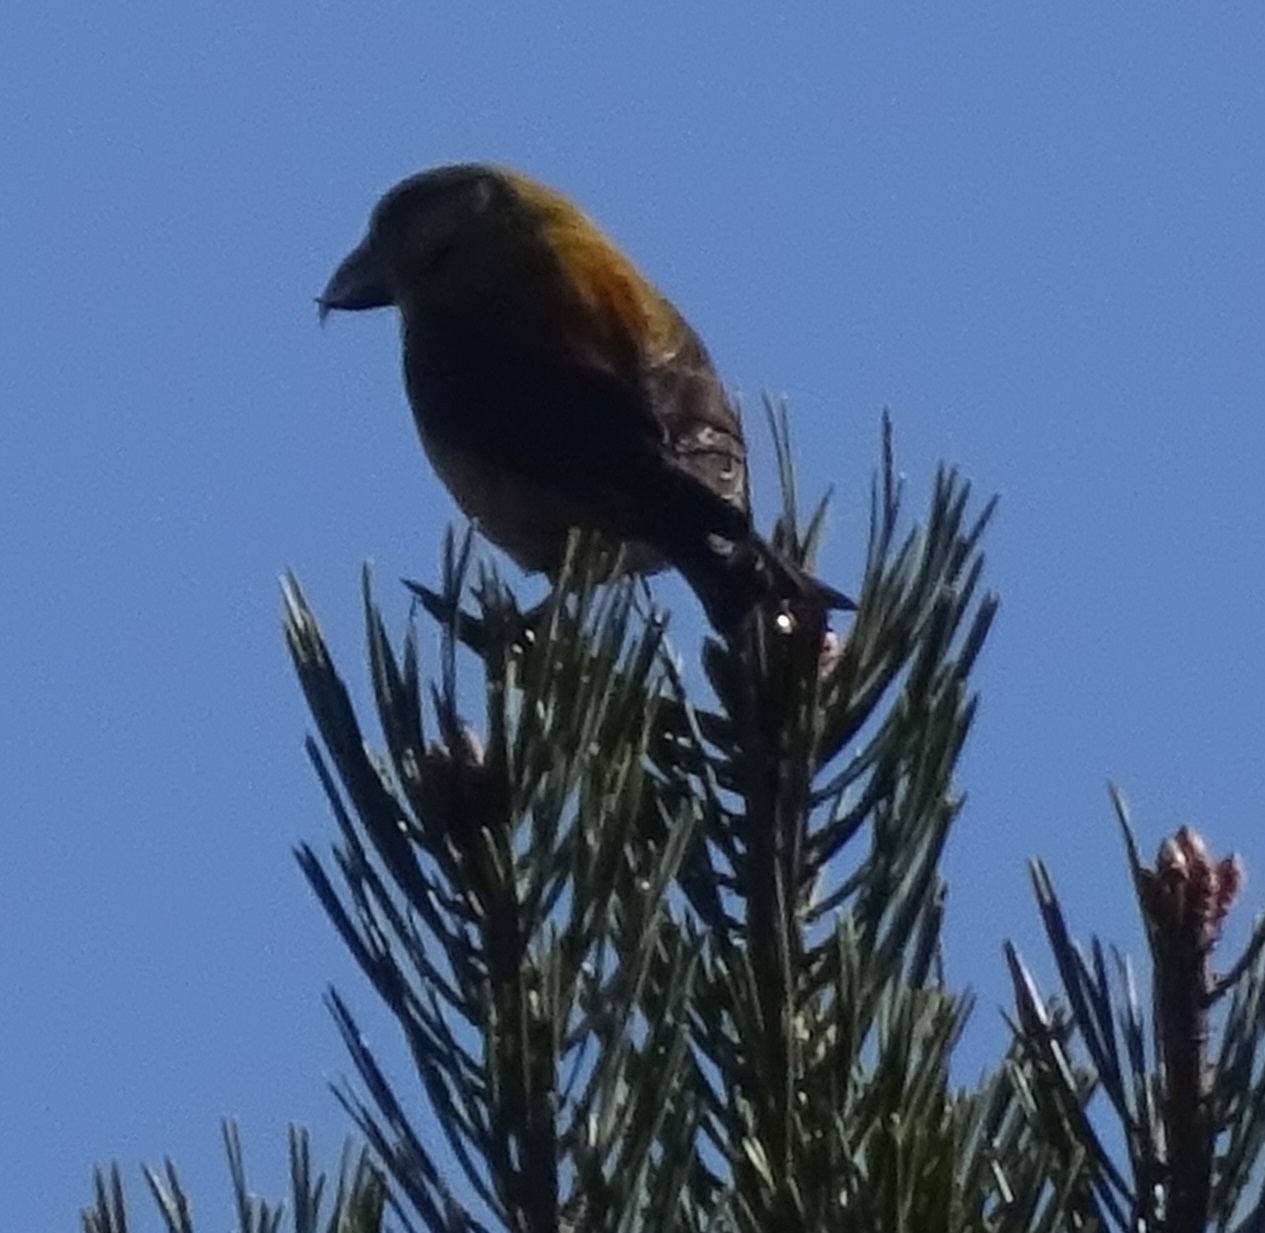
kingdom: Animalia
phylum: Chordata
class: Aves
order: Passeriformes
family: Fringillidae
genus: Loxia
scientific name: Loxia curvirostra
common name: Red crossbill
